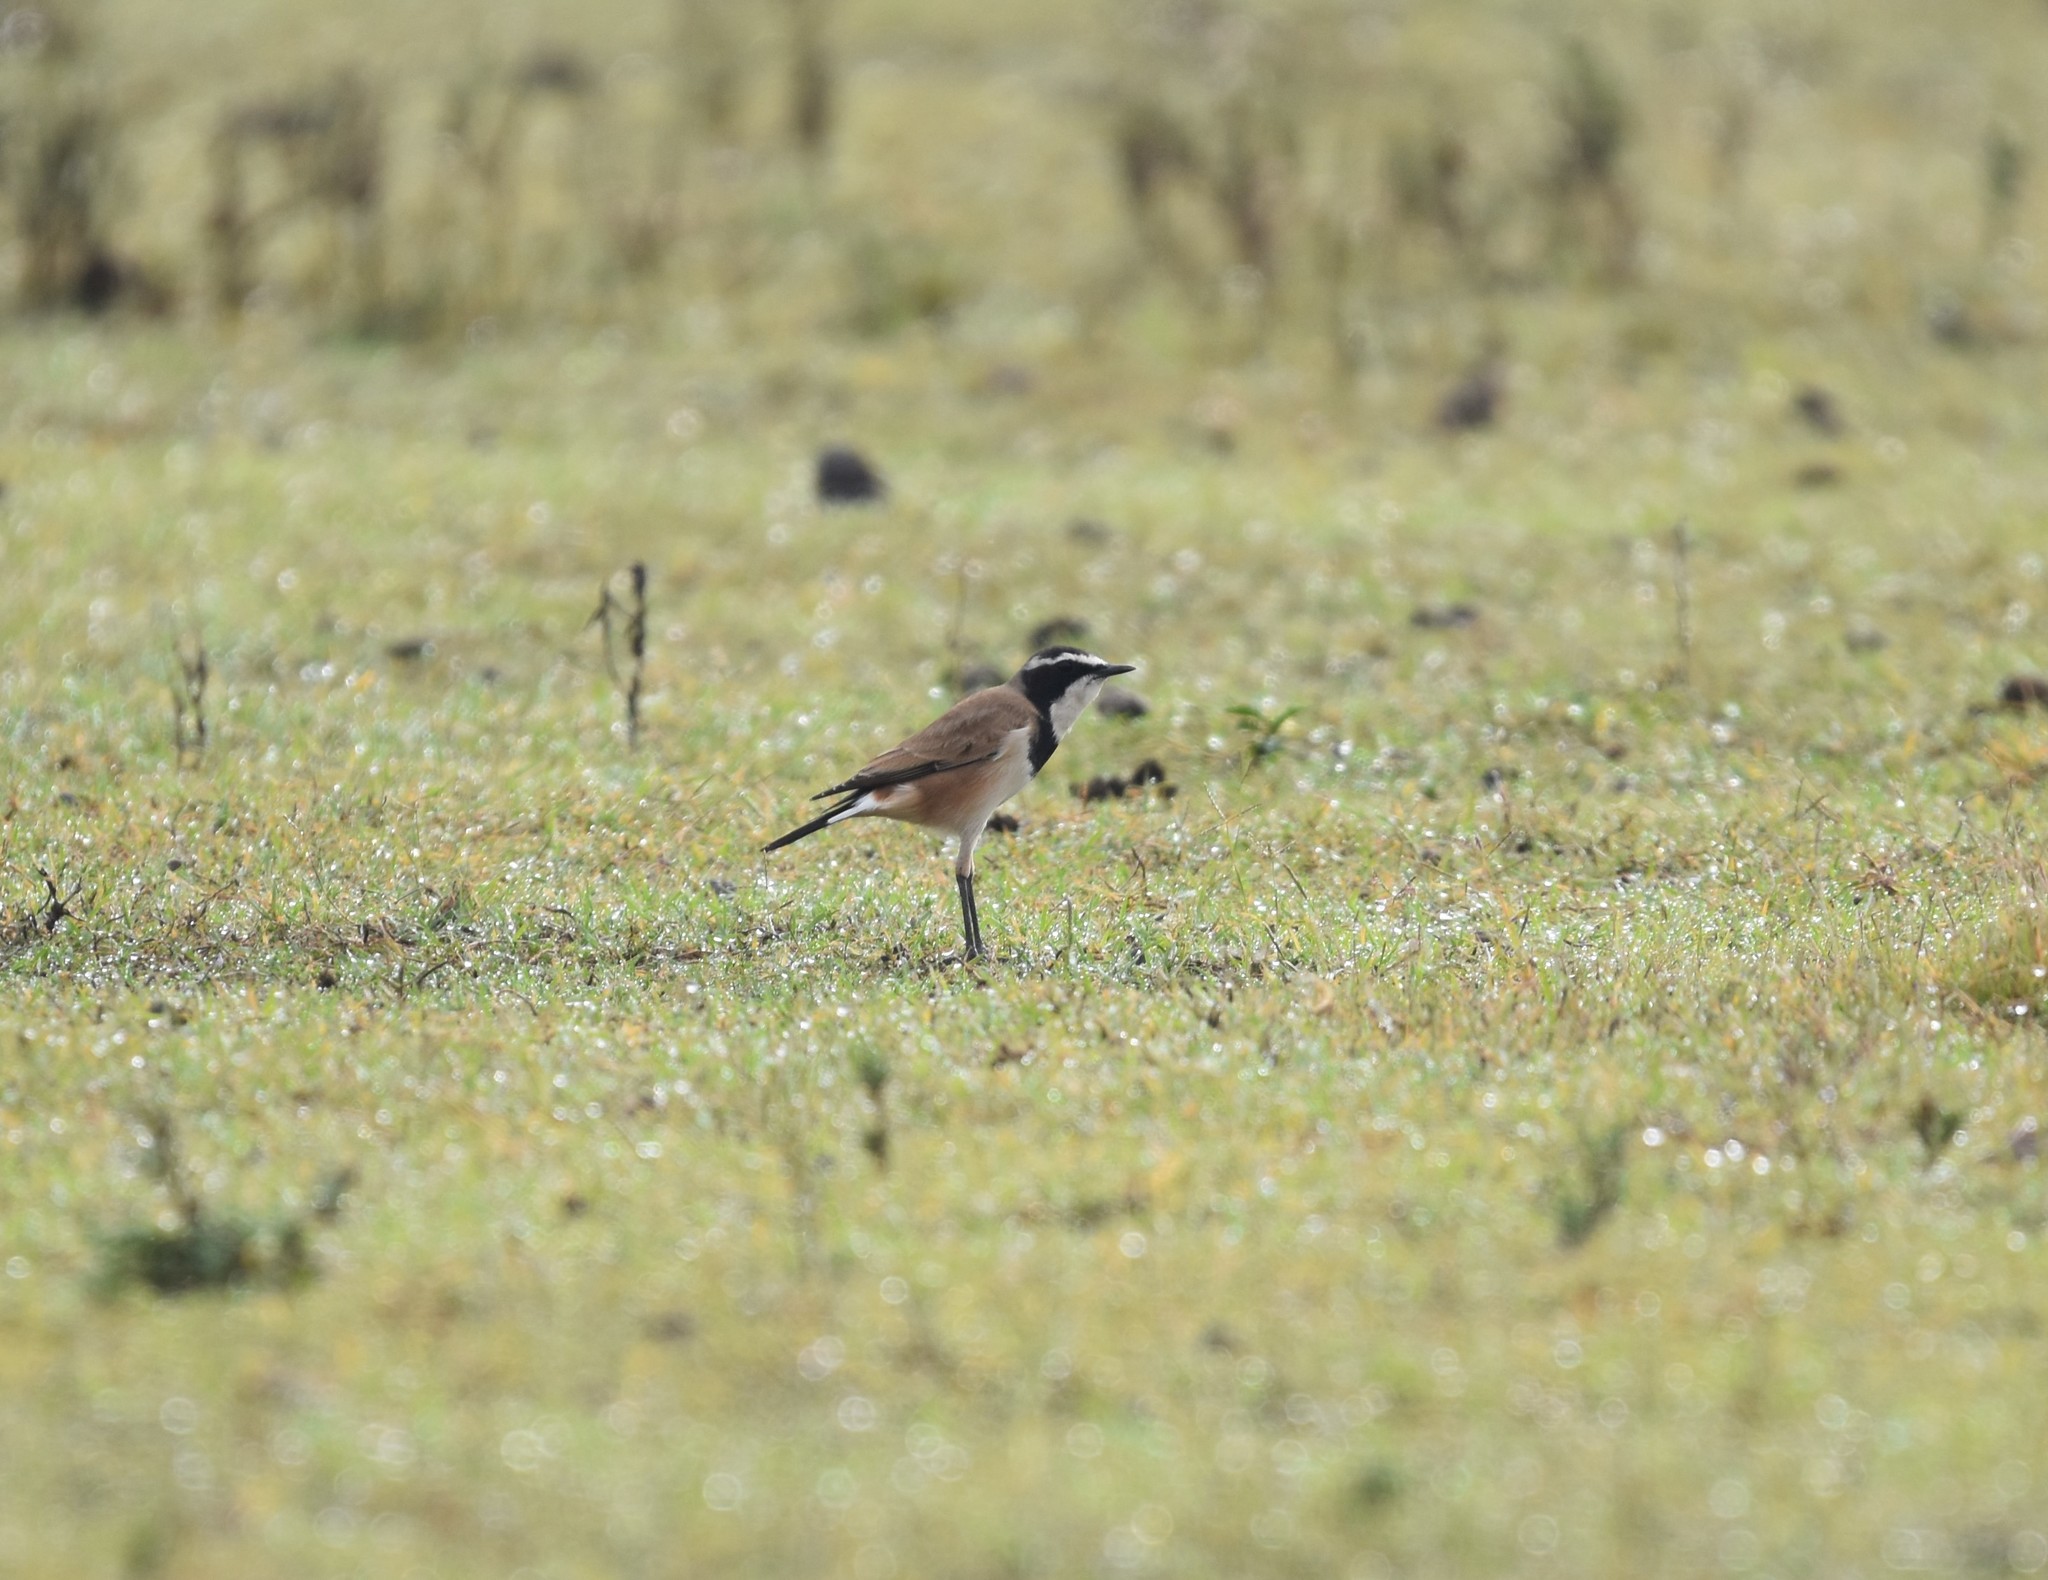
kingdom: Animalia
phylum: Chordata
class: Aves
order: Passeriformes
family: Muscicapidae
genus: Oenanthe
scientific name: Oenanthe pileata
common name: Capped wheatear
